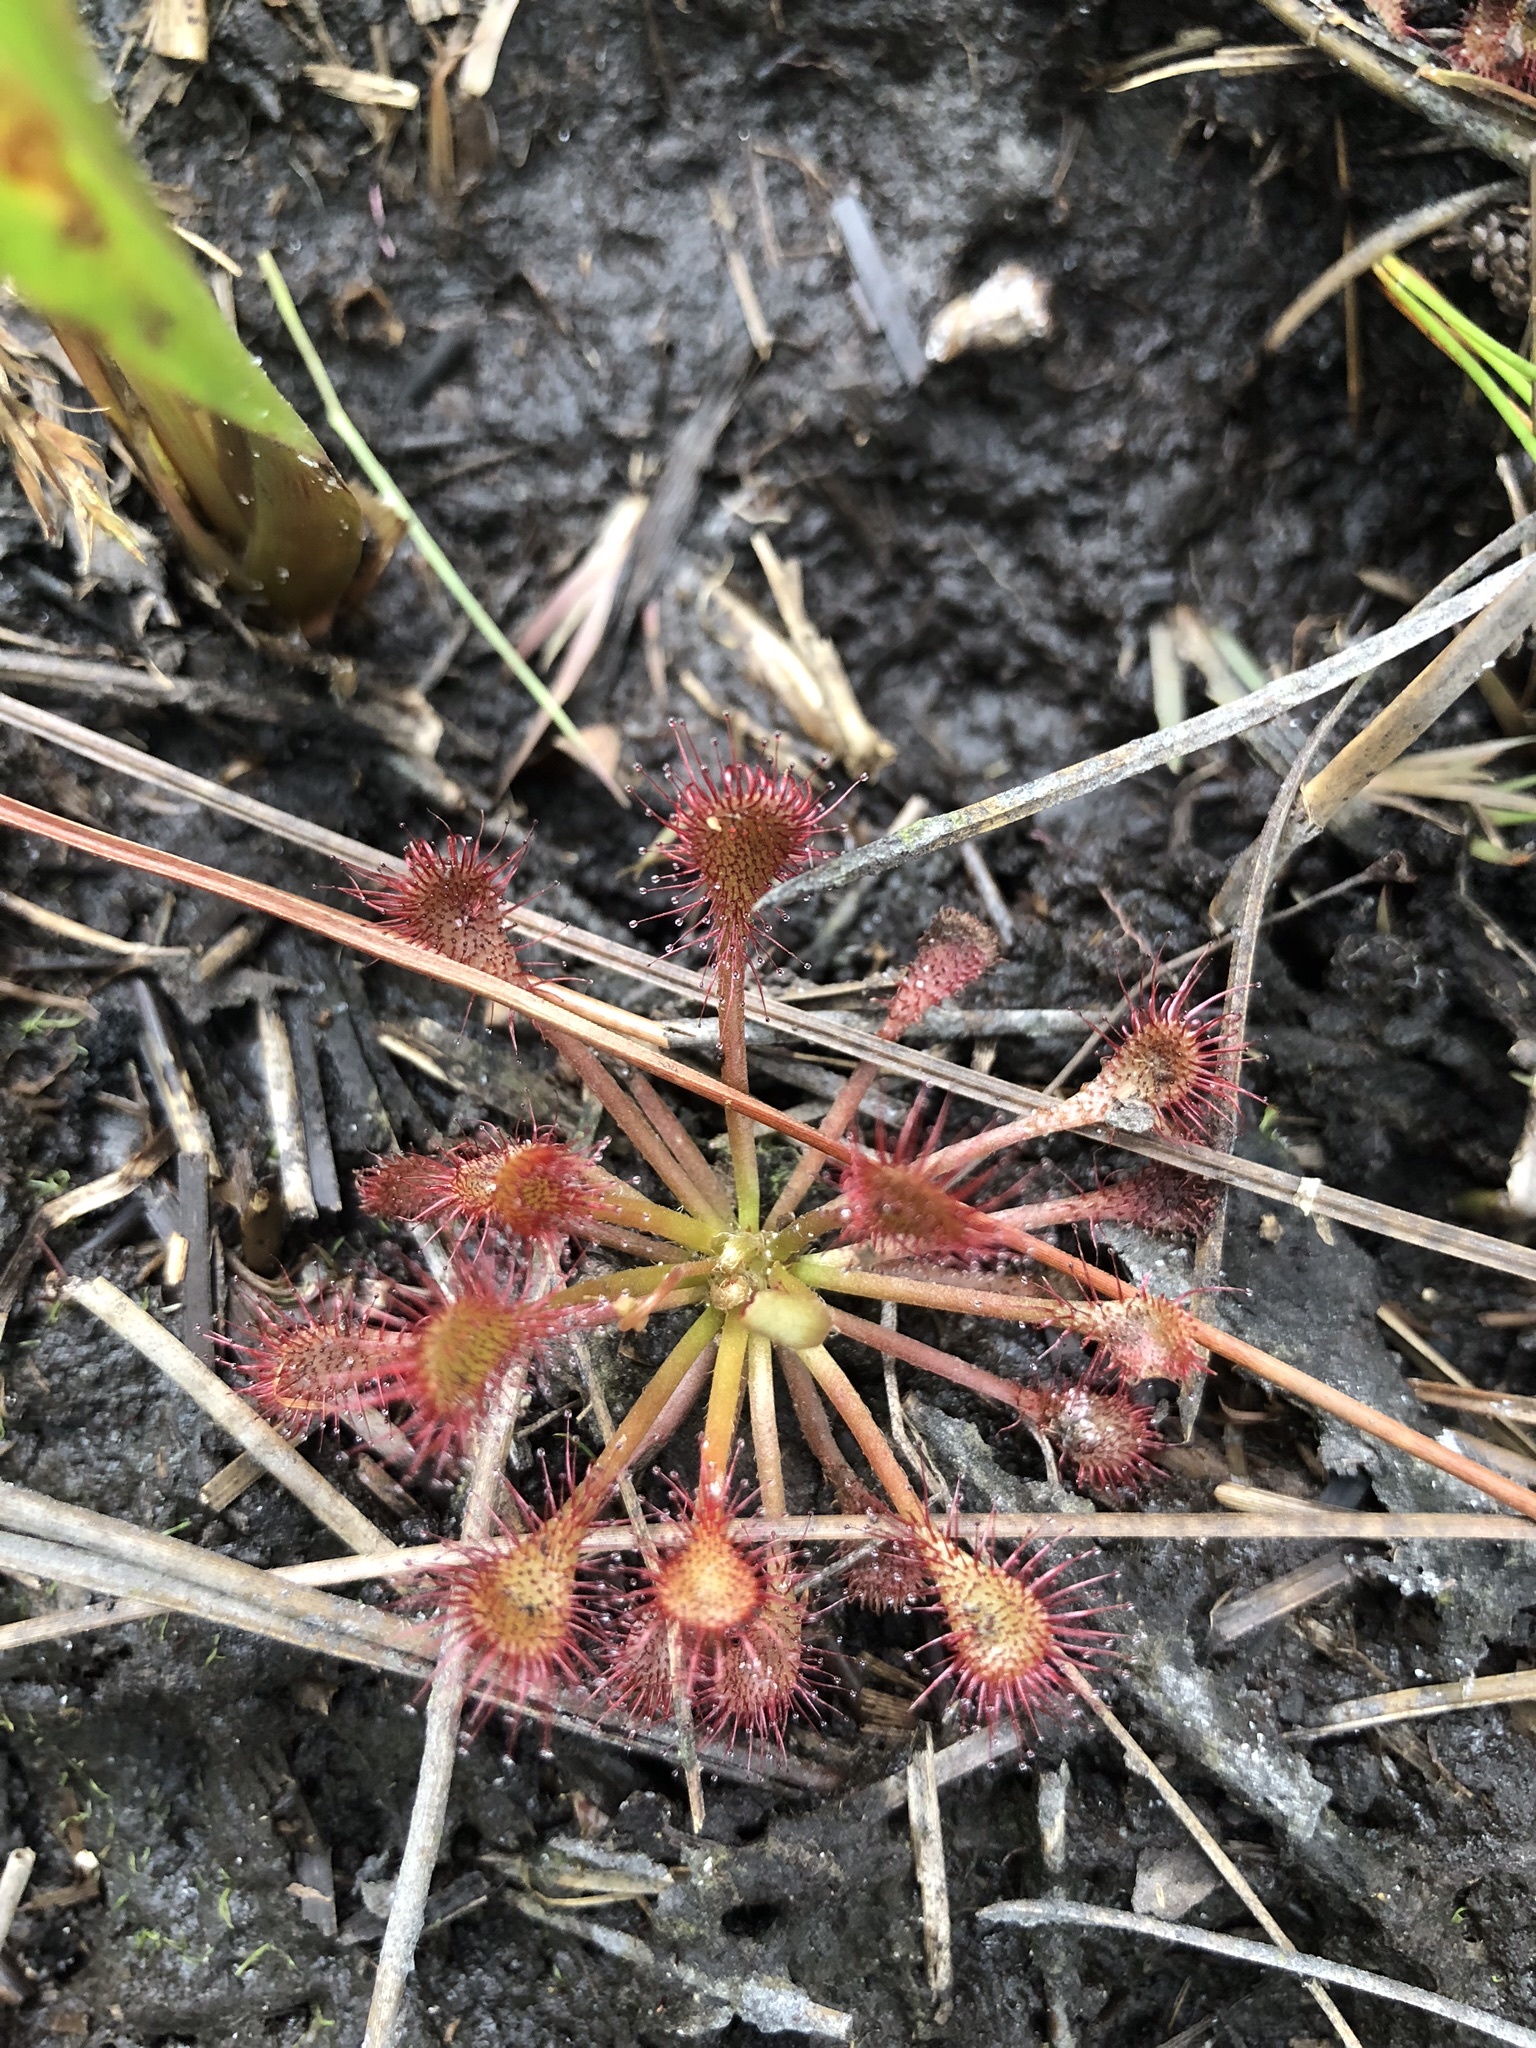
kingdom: Plantae
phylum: Tracheophyta
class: Magnoliopsida
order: Caryophyllales
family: Droseraceae
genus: Drosera
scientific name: Drosera capillaris
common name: Pink sundew
